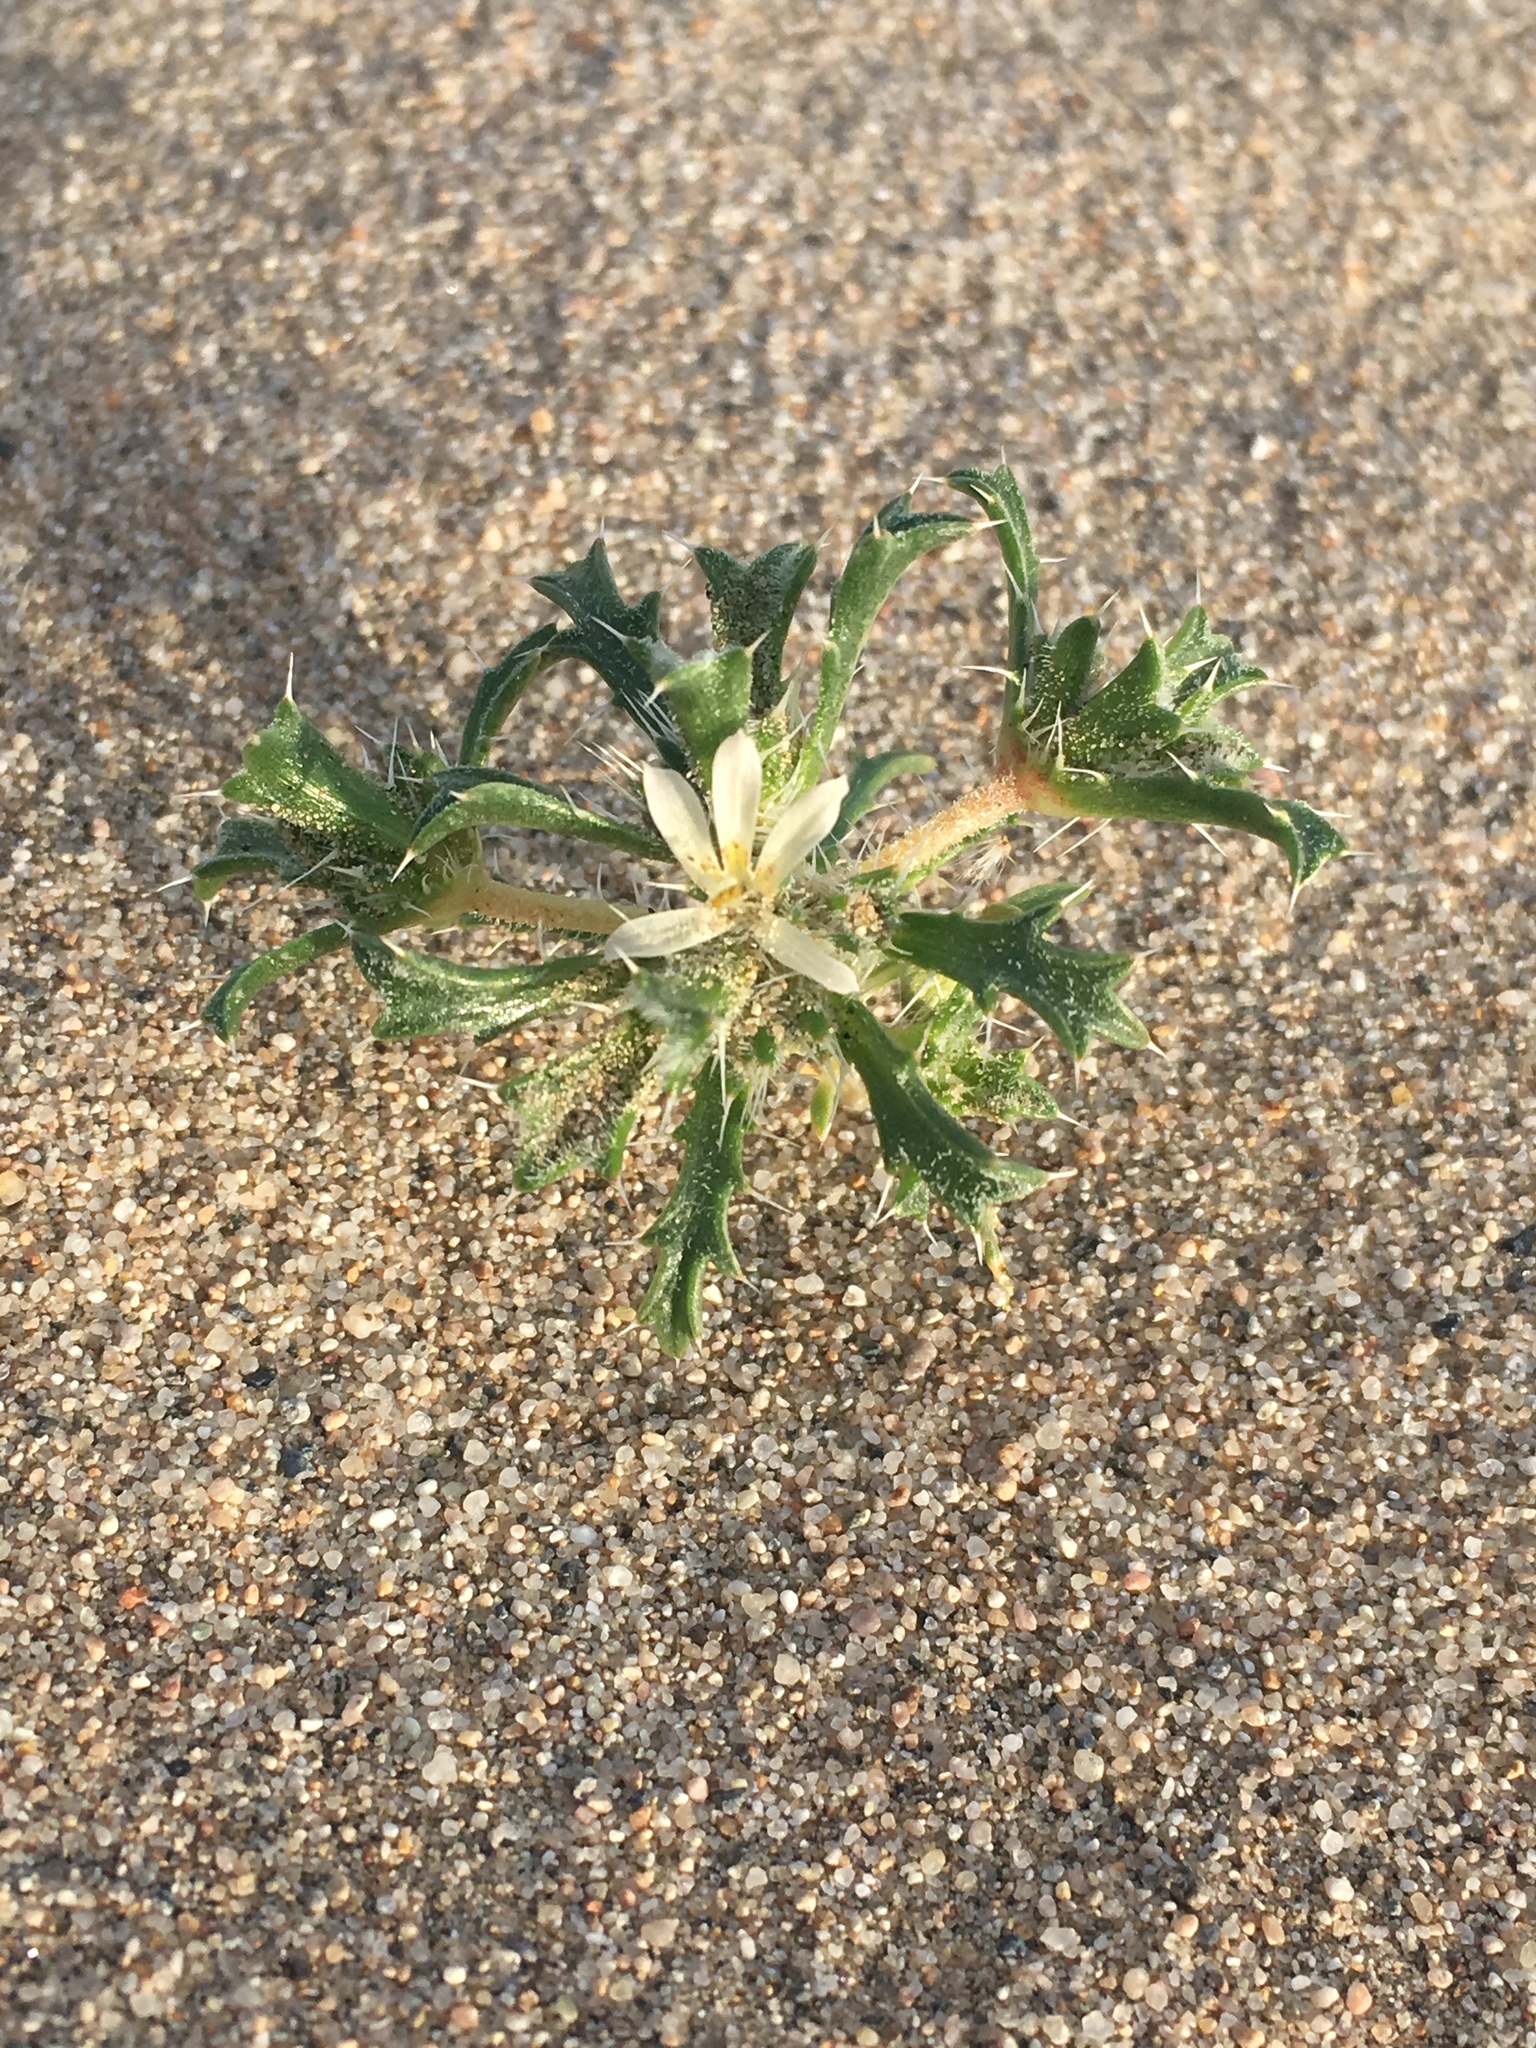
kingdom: Plantae
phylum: Tracheophyta
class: Magnoliopsida
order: Ericales
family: Polemoniaceae
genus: Loeseliastrum
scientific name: Loeseliastrum schottii
